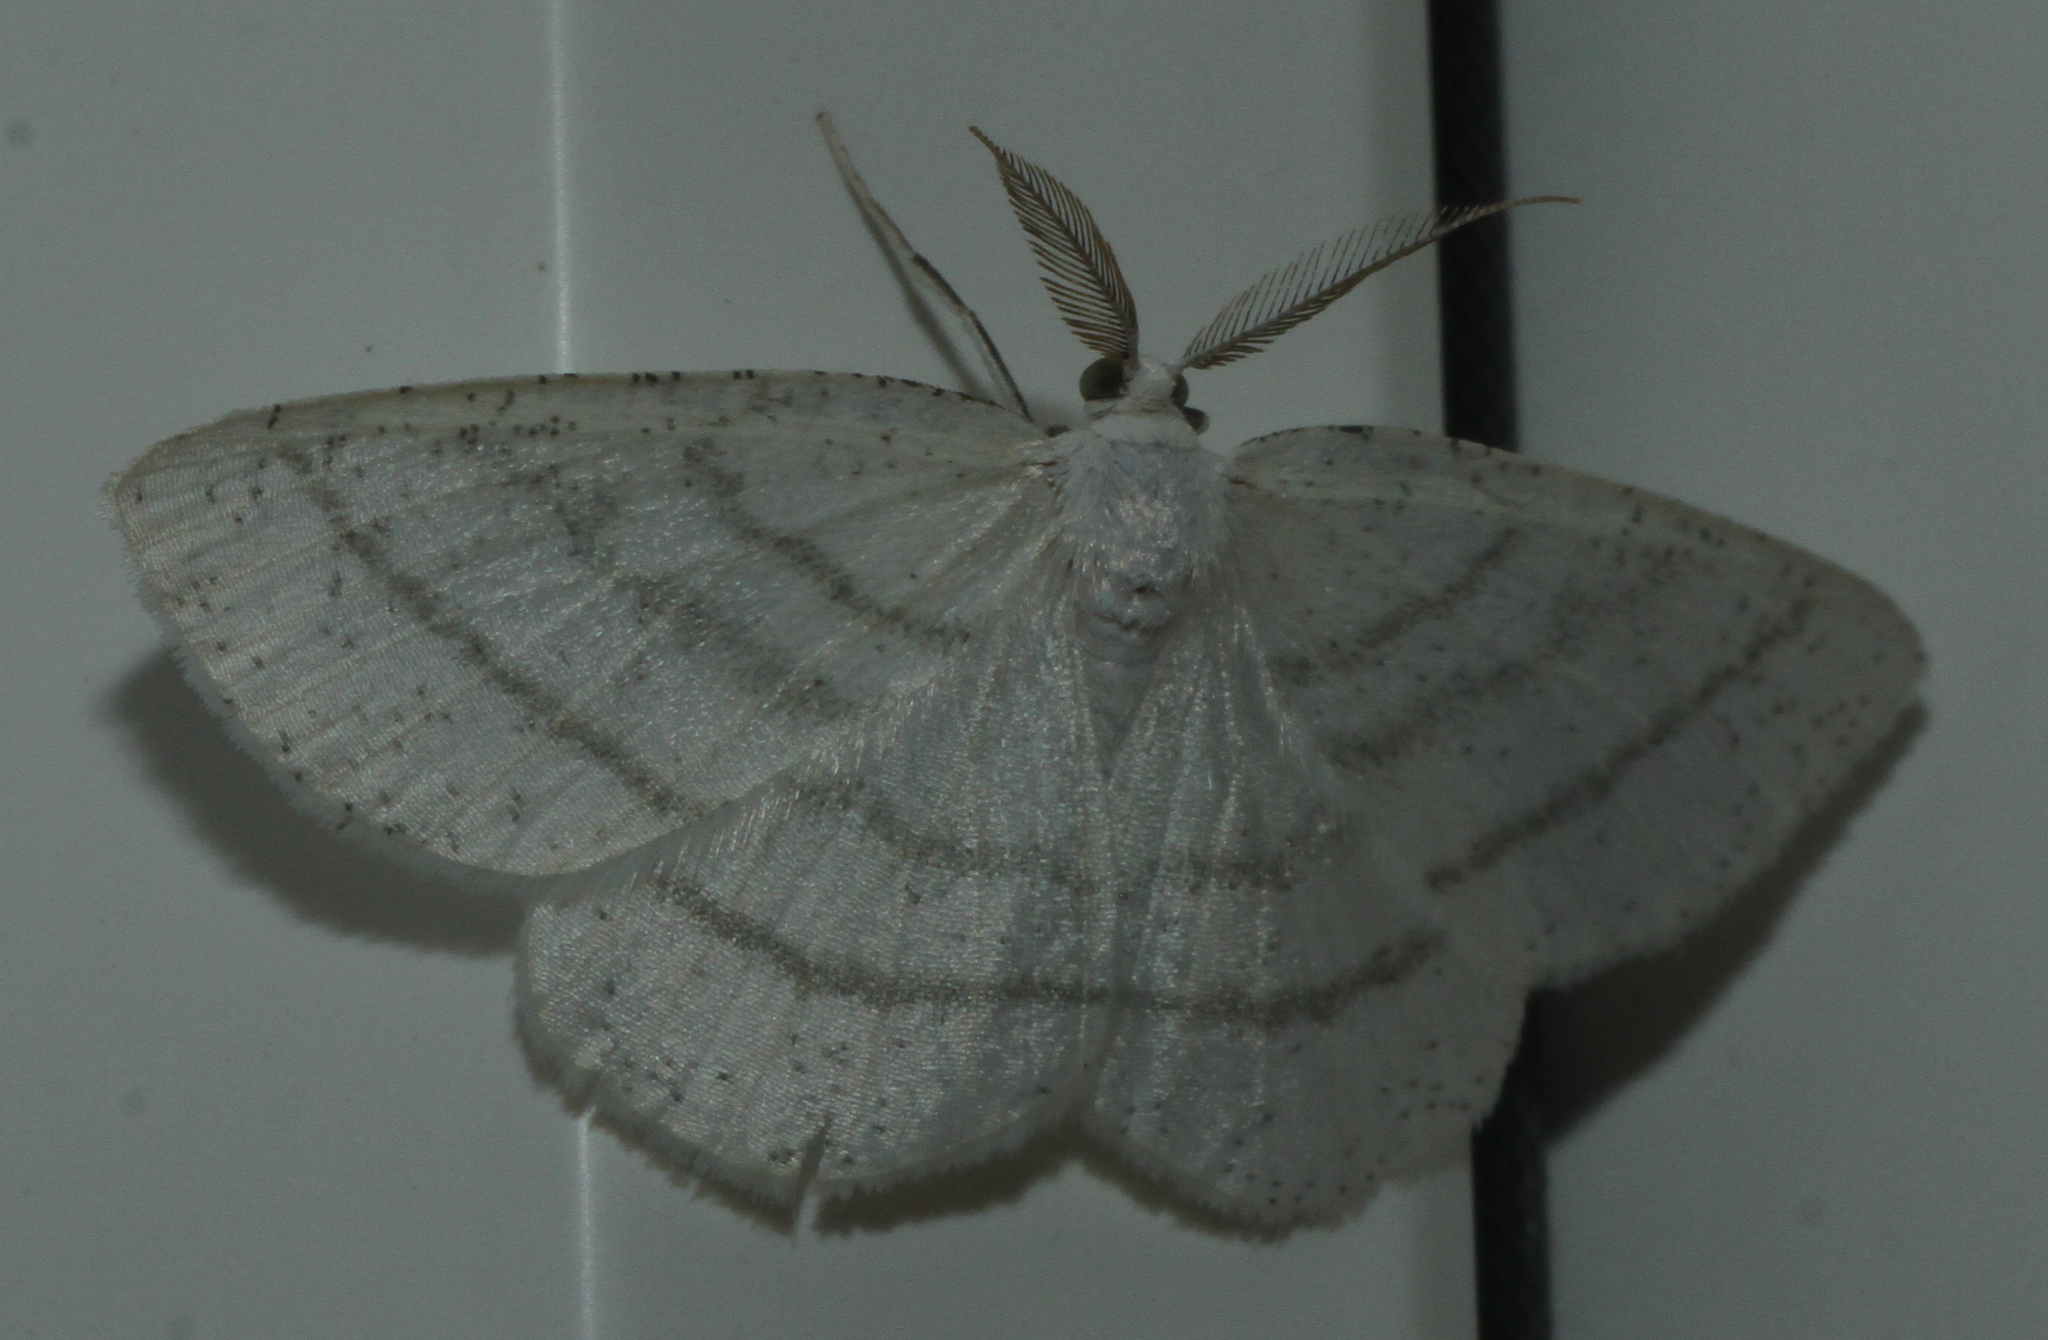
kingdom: Animalia
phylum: Arthropoda
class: Insecta
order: Lepidoptera
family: Geometridae
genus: Cabera
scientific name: Cabera pusaria
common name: Common white wave
